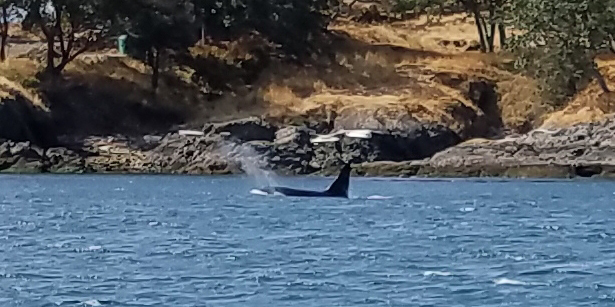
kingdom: Animalia
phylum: Chordata
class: Mammalia
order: Cetacea
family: Delphinidae
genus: Orcinus
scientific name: Orcinus orca
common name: Killer whale
